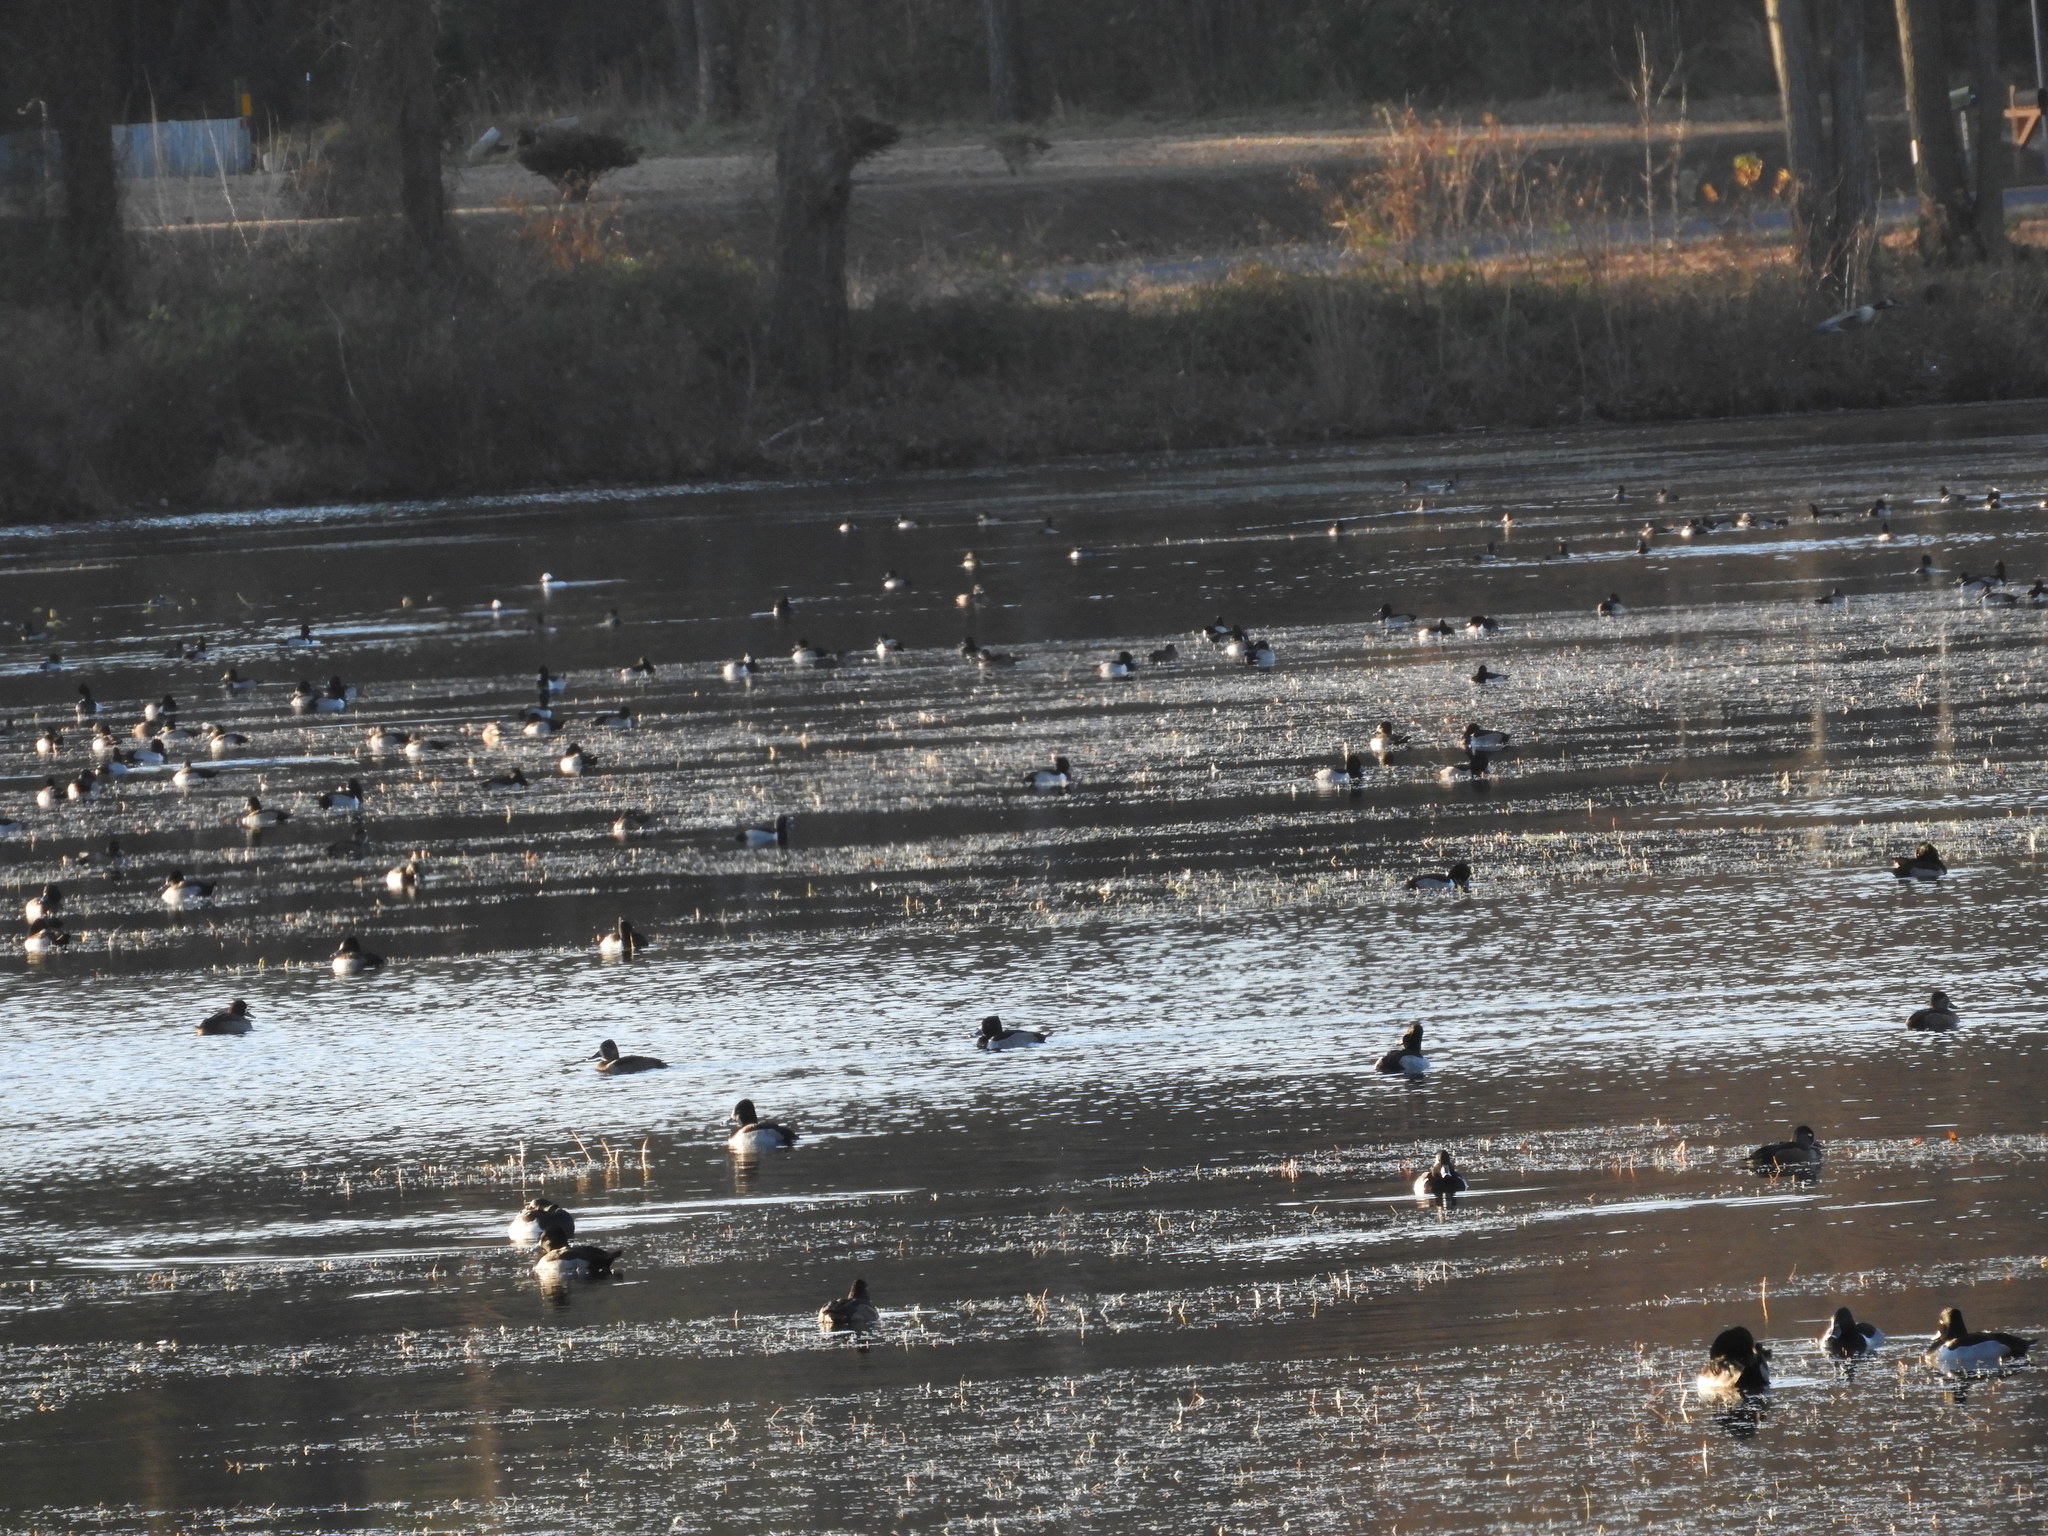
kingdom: Animalia
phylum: Chordata
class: Aves
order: Anseriformes
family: Anatidae
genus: Bucephala
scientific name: Bucephala albeola
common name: Bufflehead
